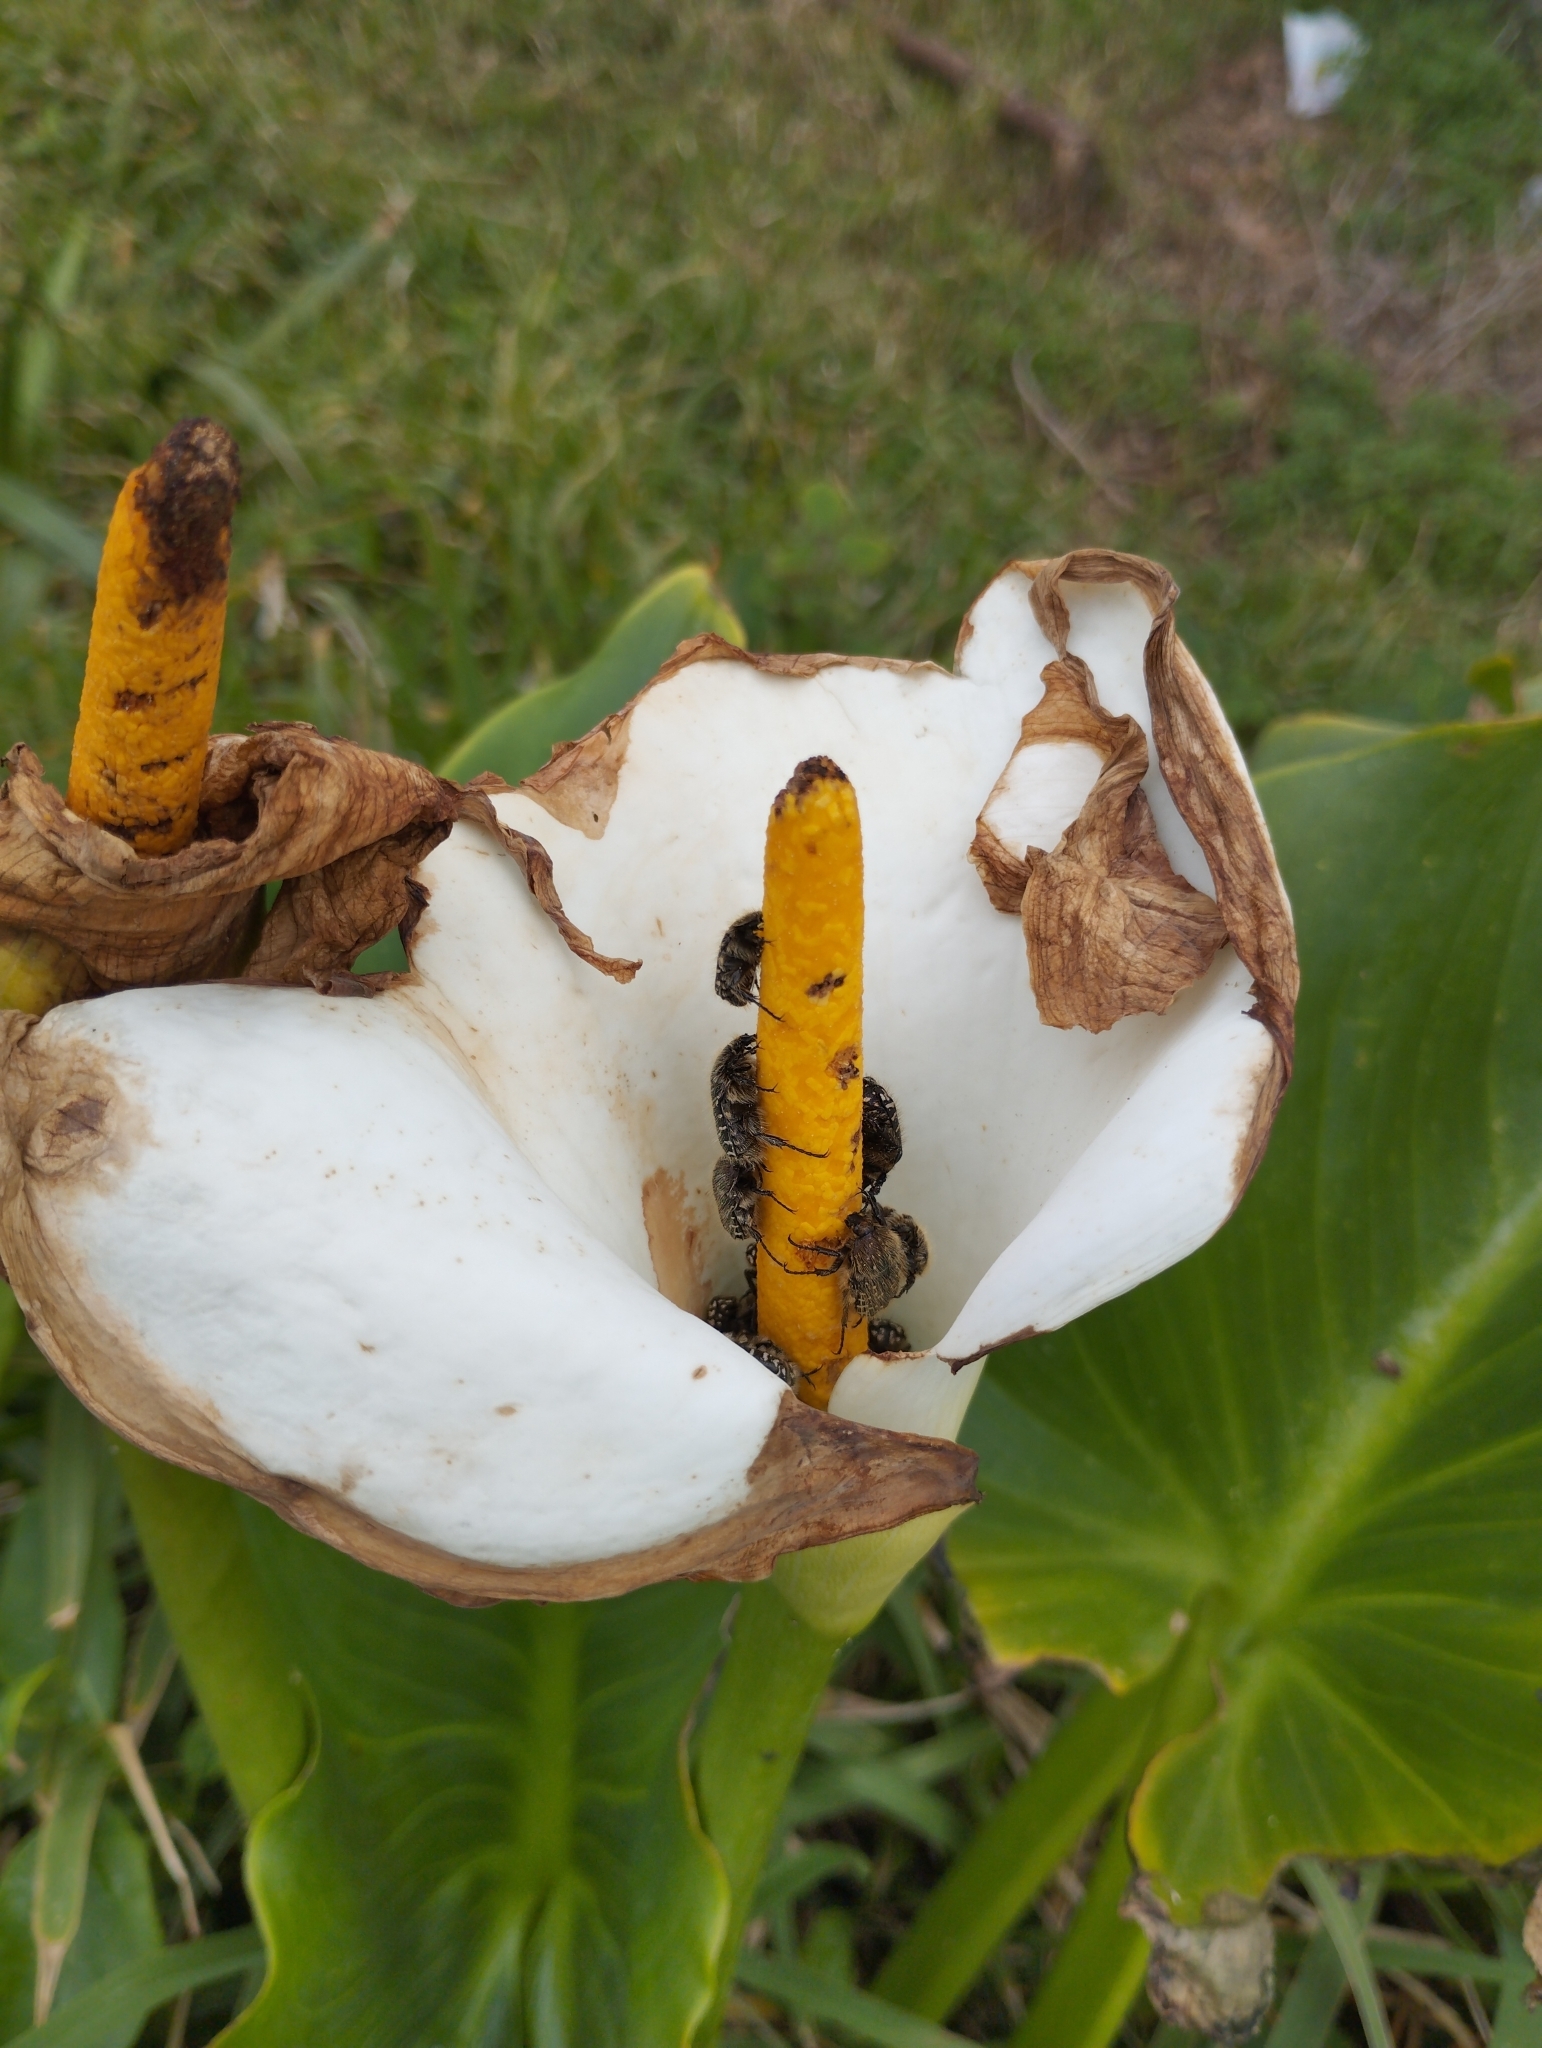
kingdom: Plantae
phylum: Tracheophyta
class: Liliopsida
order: Alismatales
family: Araceae
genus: Zantedeschia
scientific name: Zantedeschia aethiopica
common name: Altar-lily
